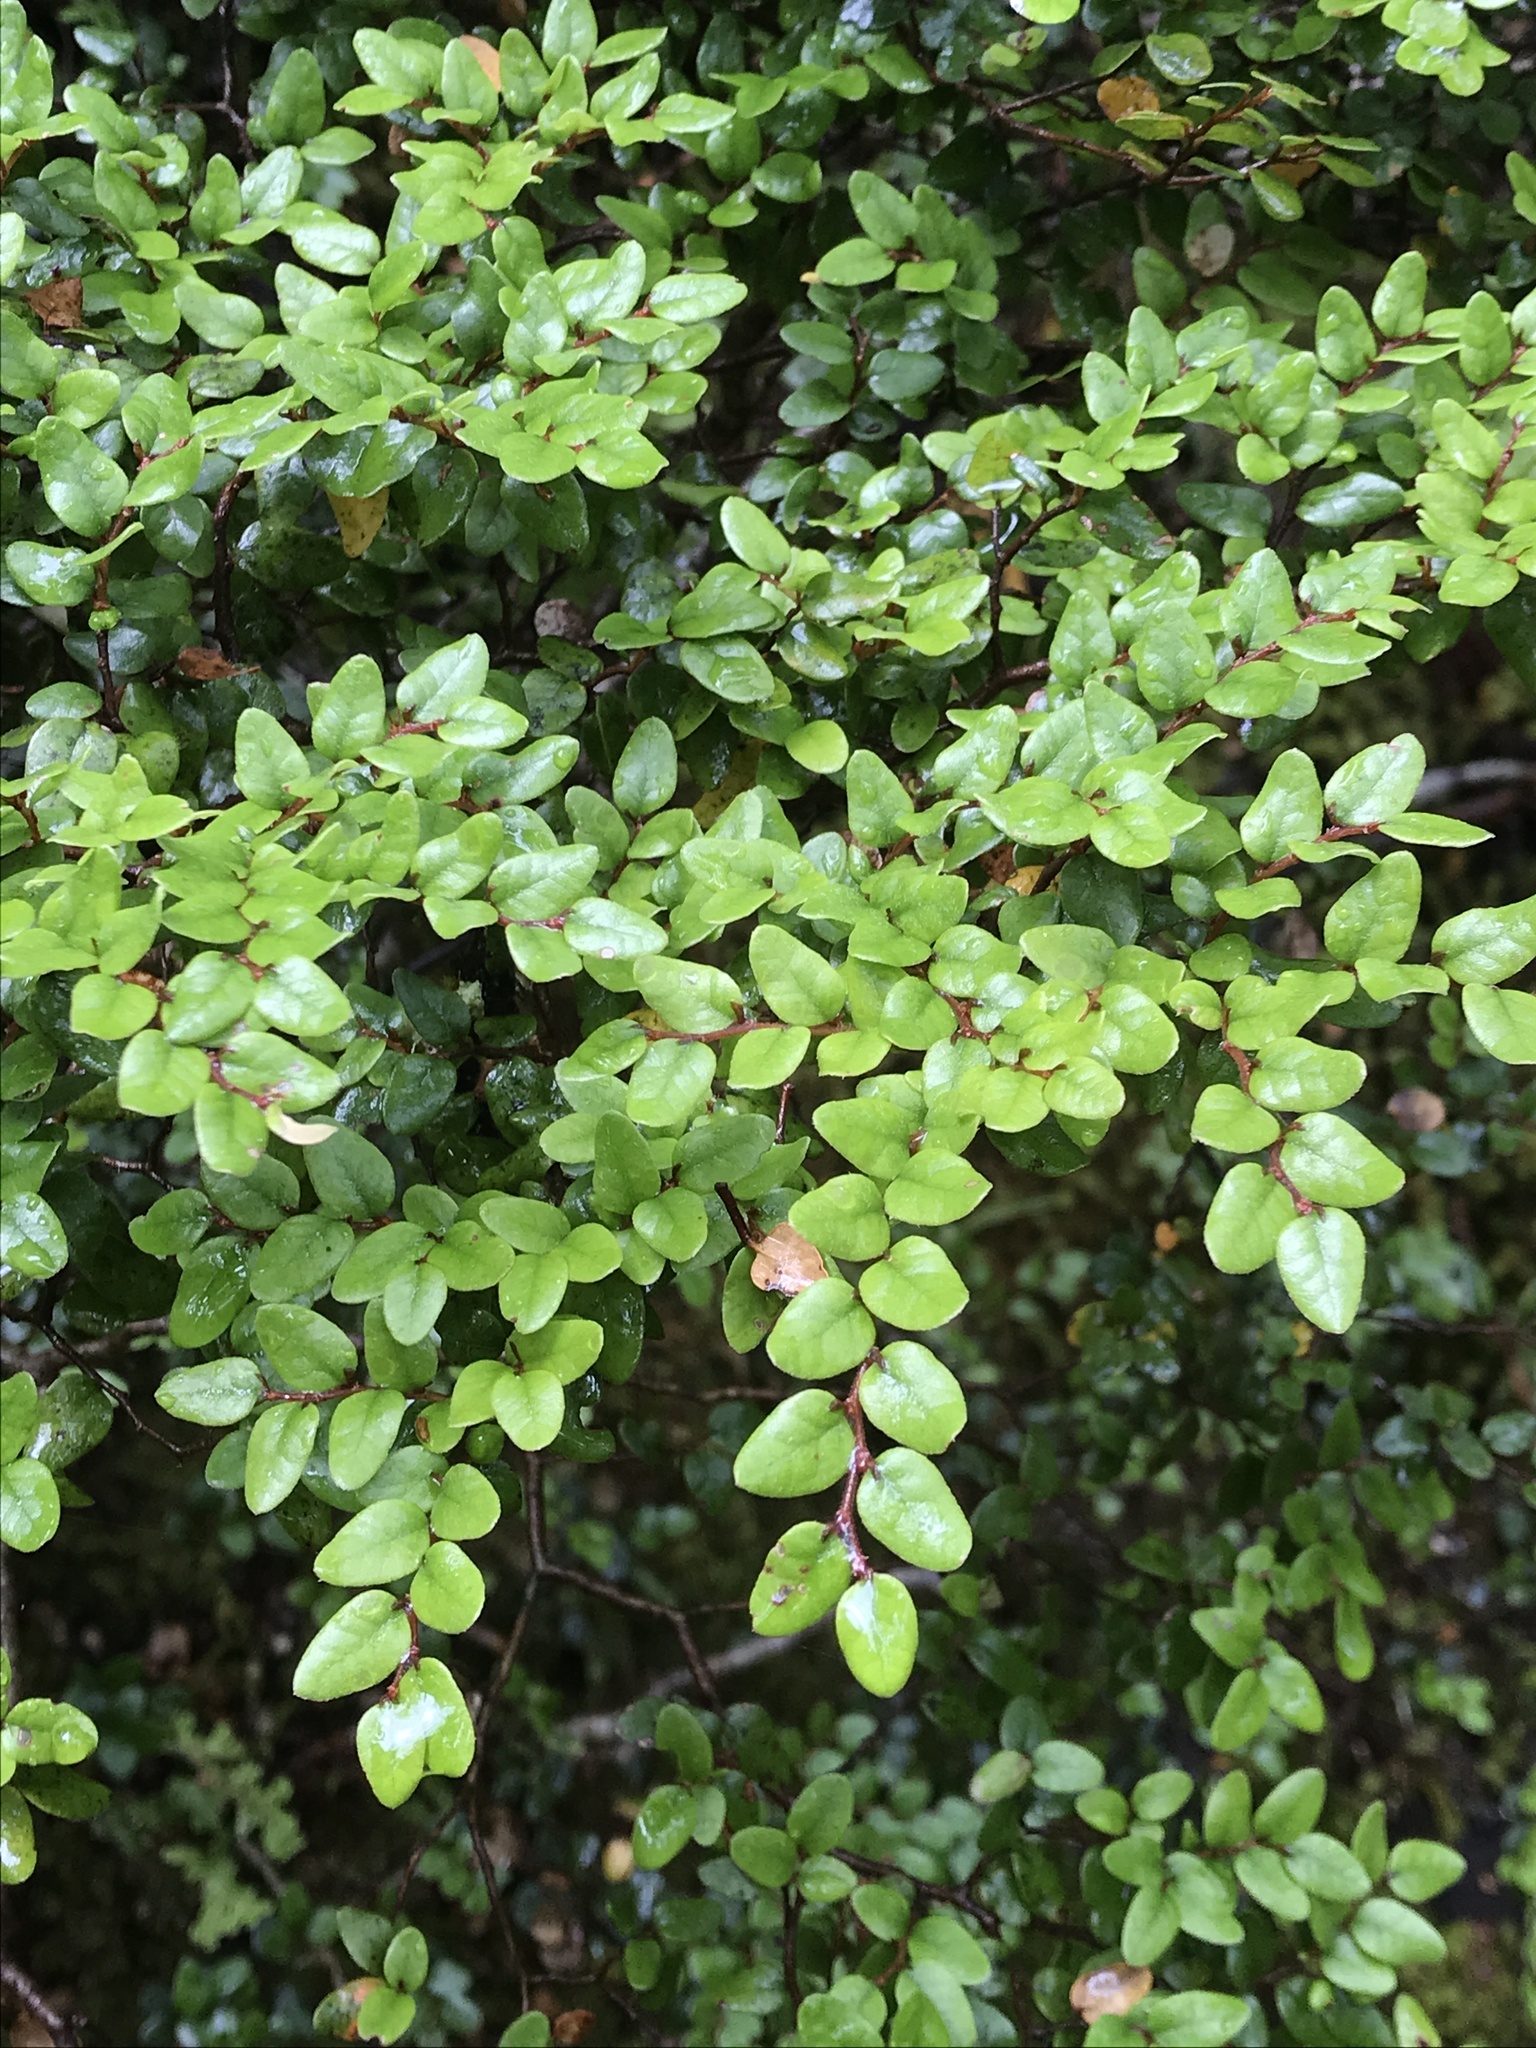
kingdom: Plantae
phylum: Tracheophyta
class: Magnoliopsida
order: Fagales
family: Nothofagaceae
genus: Nothofagus
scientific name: Nothofagus cliffortioides
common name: Mountain beech
